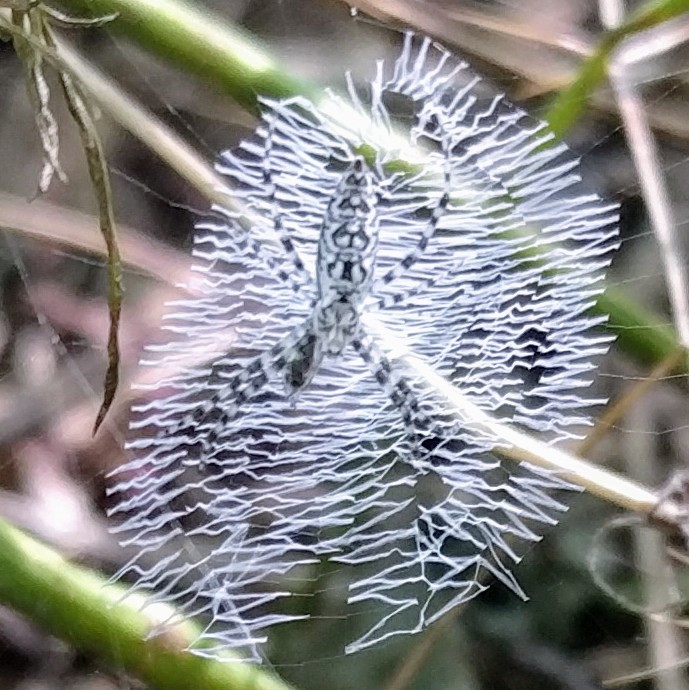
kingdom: Animalia
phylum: Arthropoda
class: Arachnida
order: Araneae
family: Araneidae
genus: Argiope
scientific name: Argiope aurantia
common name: Orb weavers
